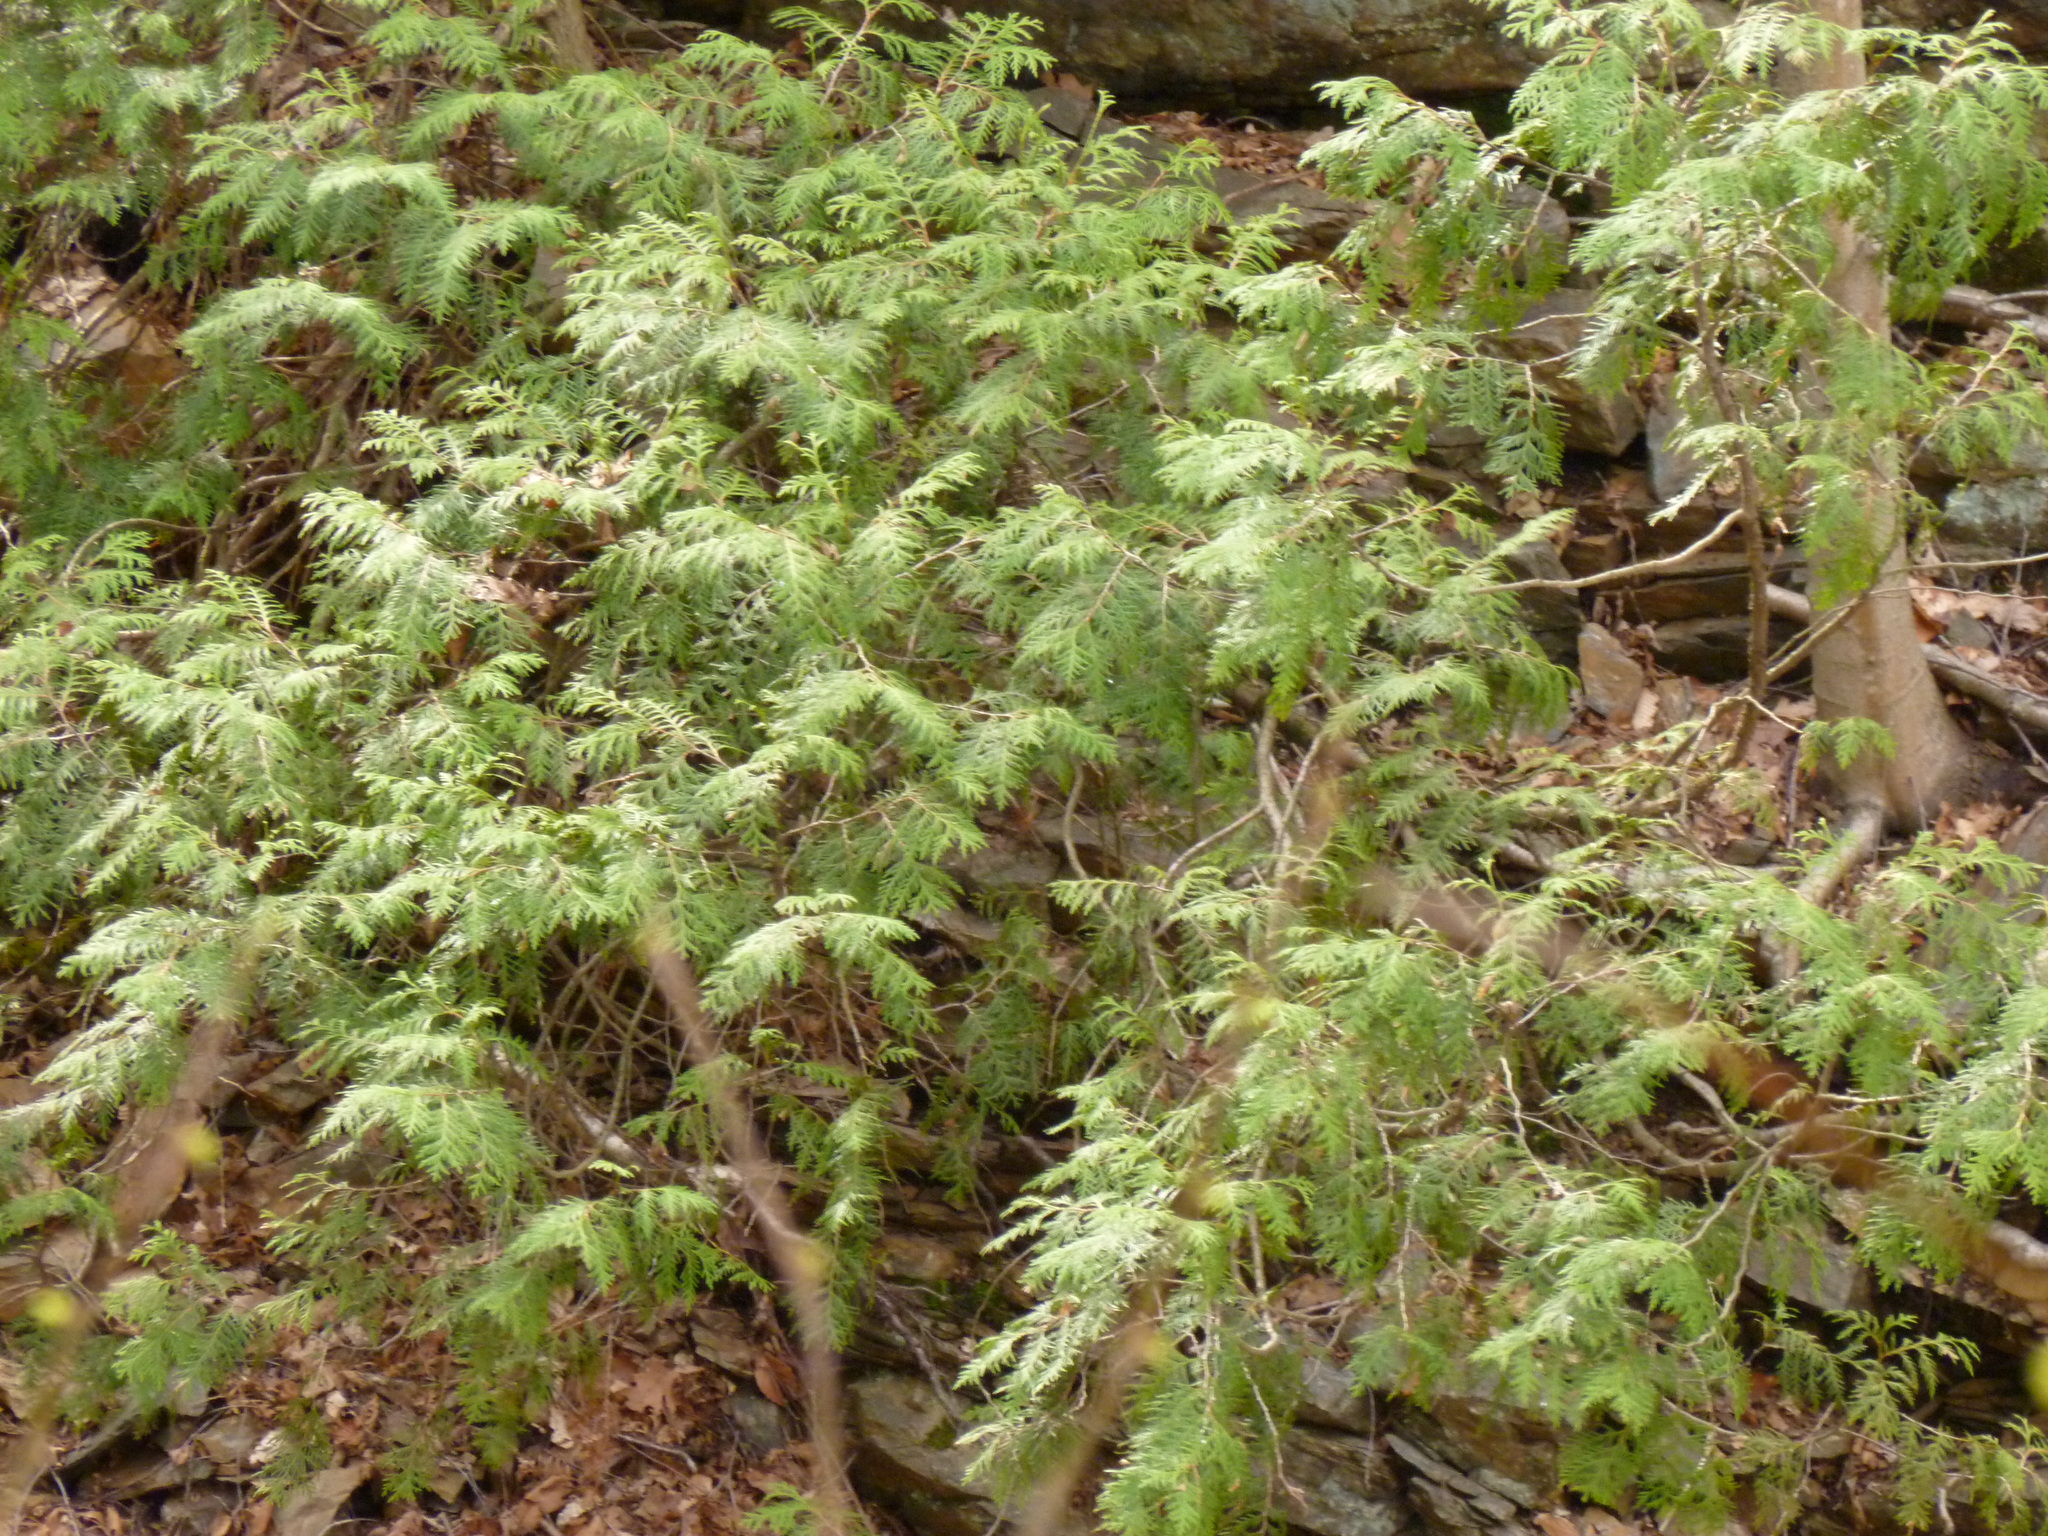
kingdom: Plantae
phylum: Tracheophyta
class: Pinopsida
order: Pinales
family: Cupressaceae
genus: Chamaecyparis
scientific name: Chamaecyparis thyoides
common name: Atlantic white cedar
